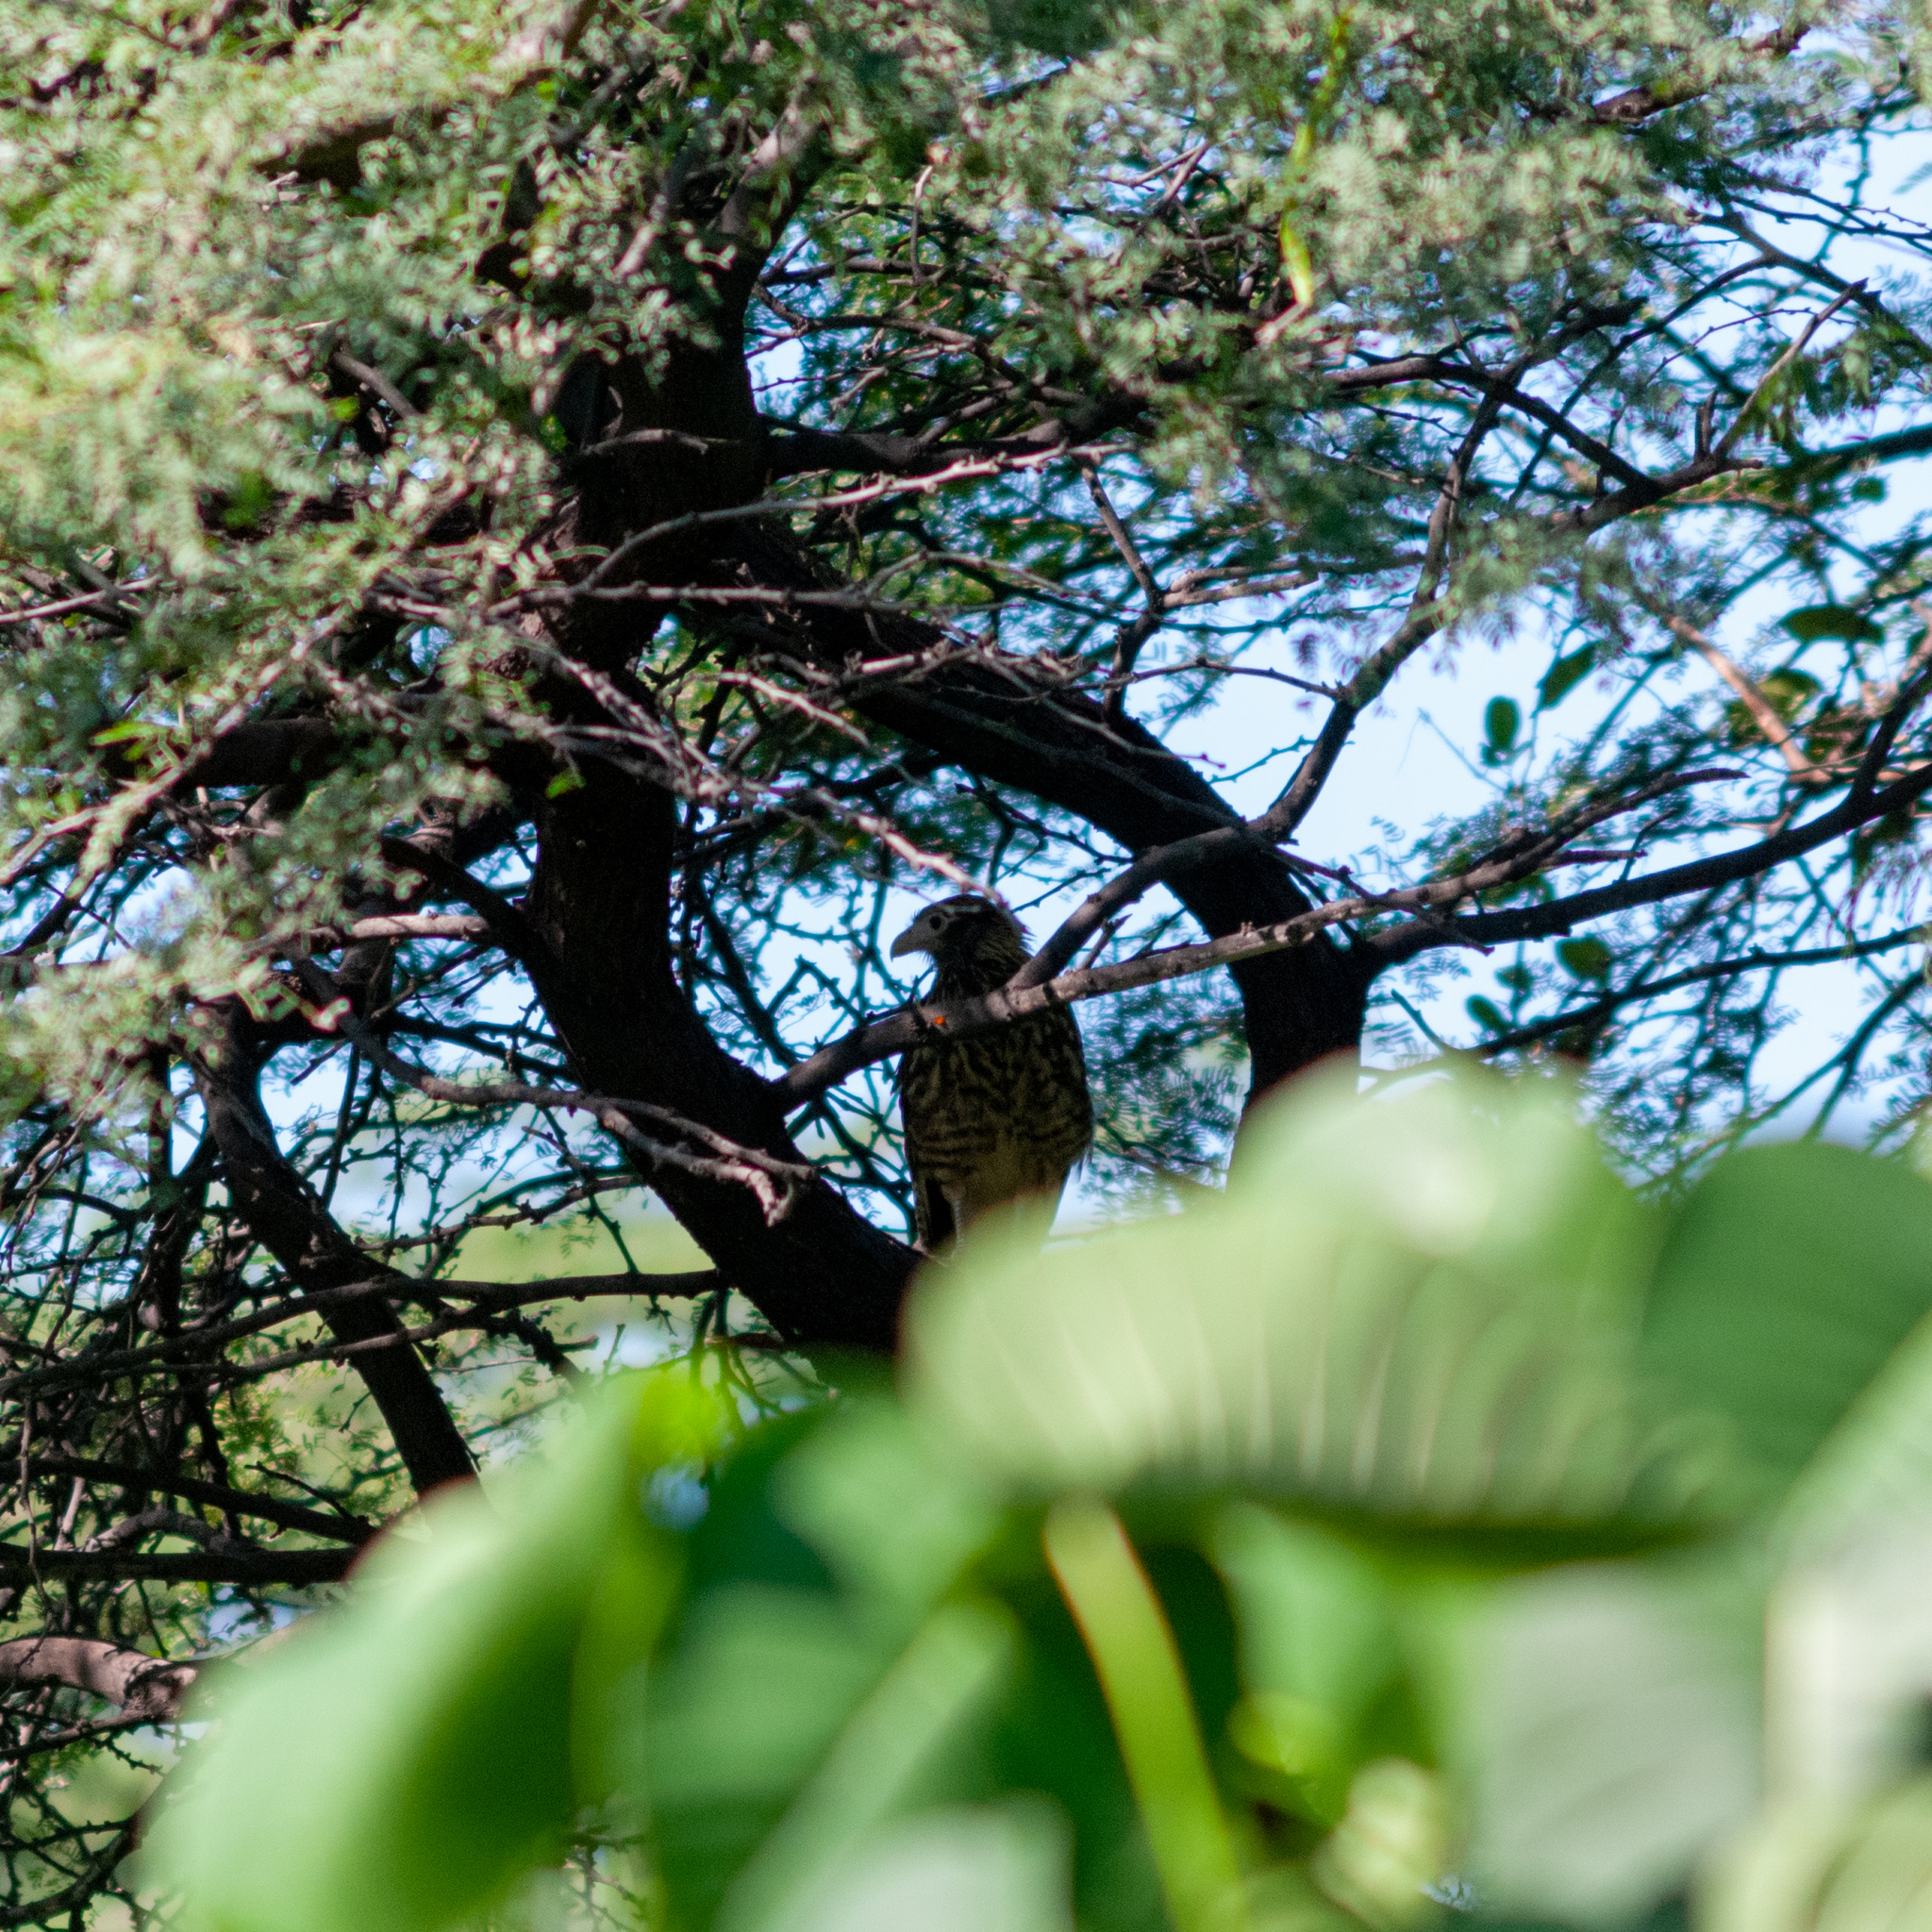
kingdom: Animalia
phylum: Chordata
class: Aves
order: Falconiformes
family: Falconidae
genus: Daptrius
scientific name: Daptrius
